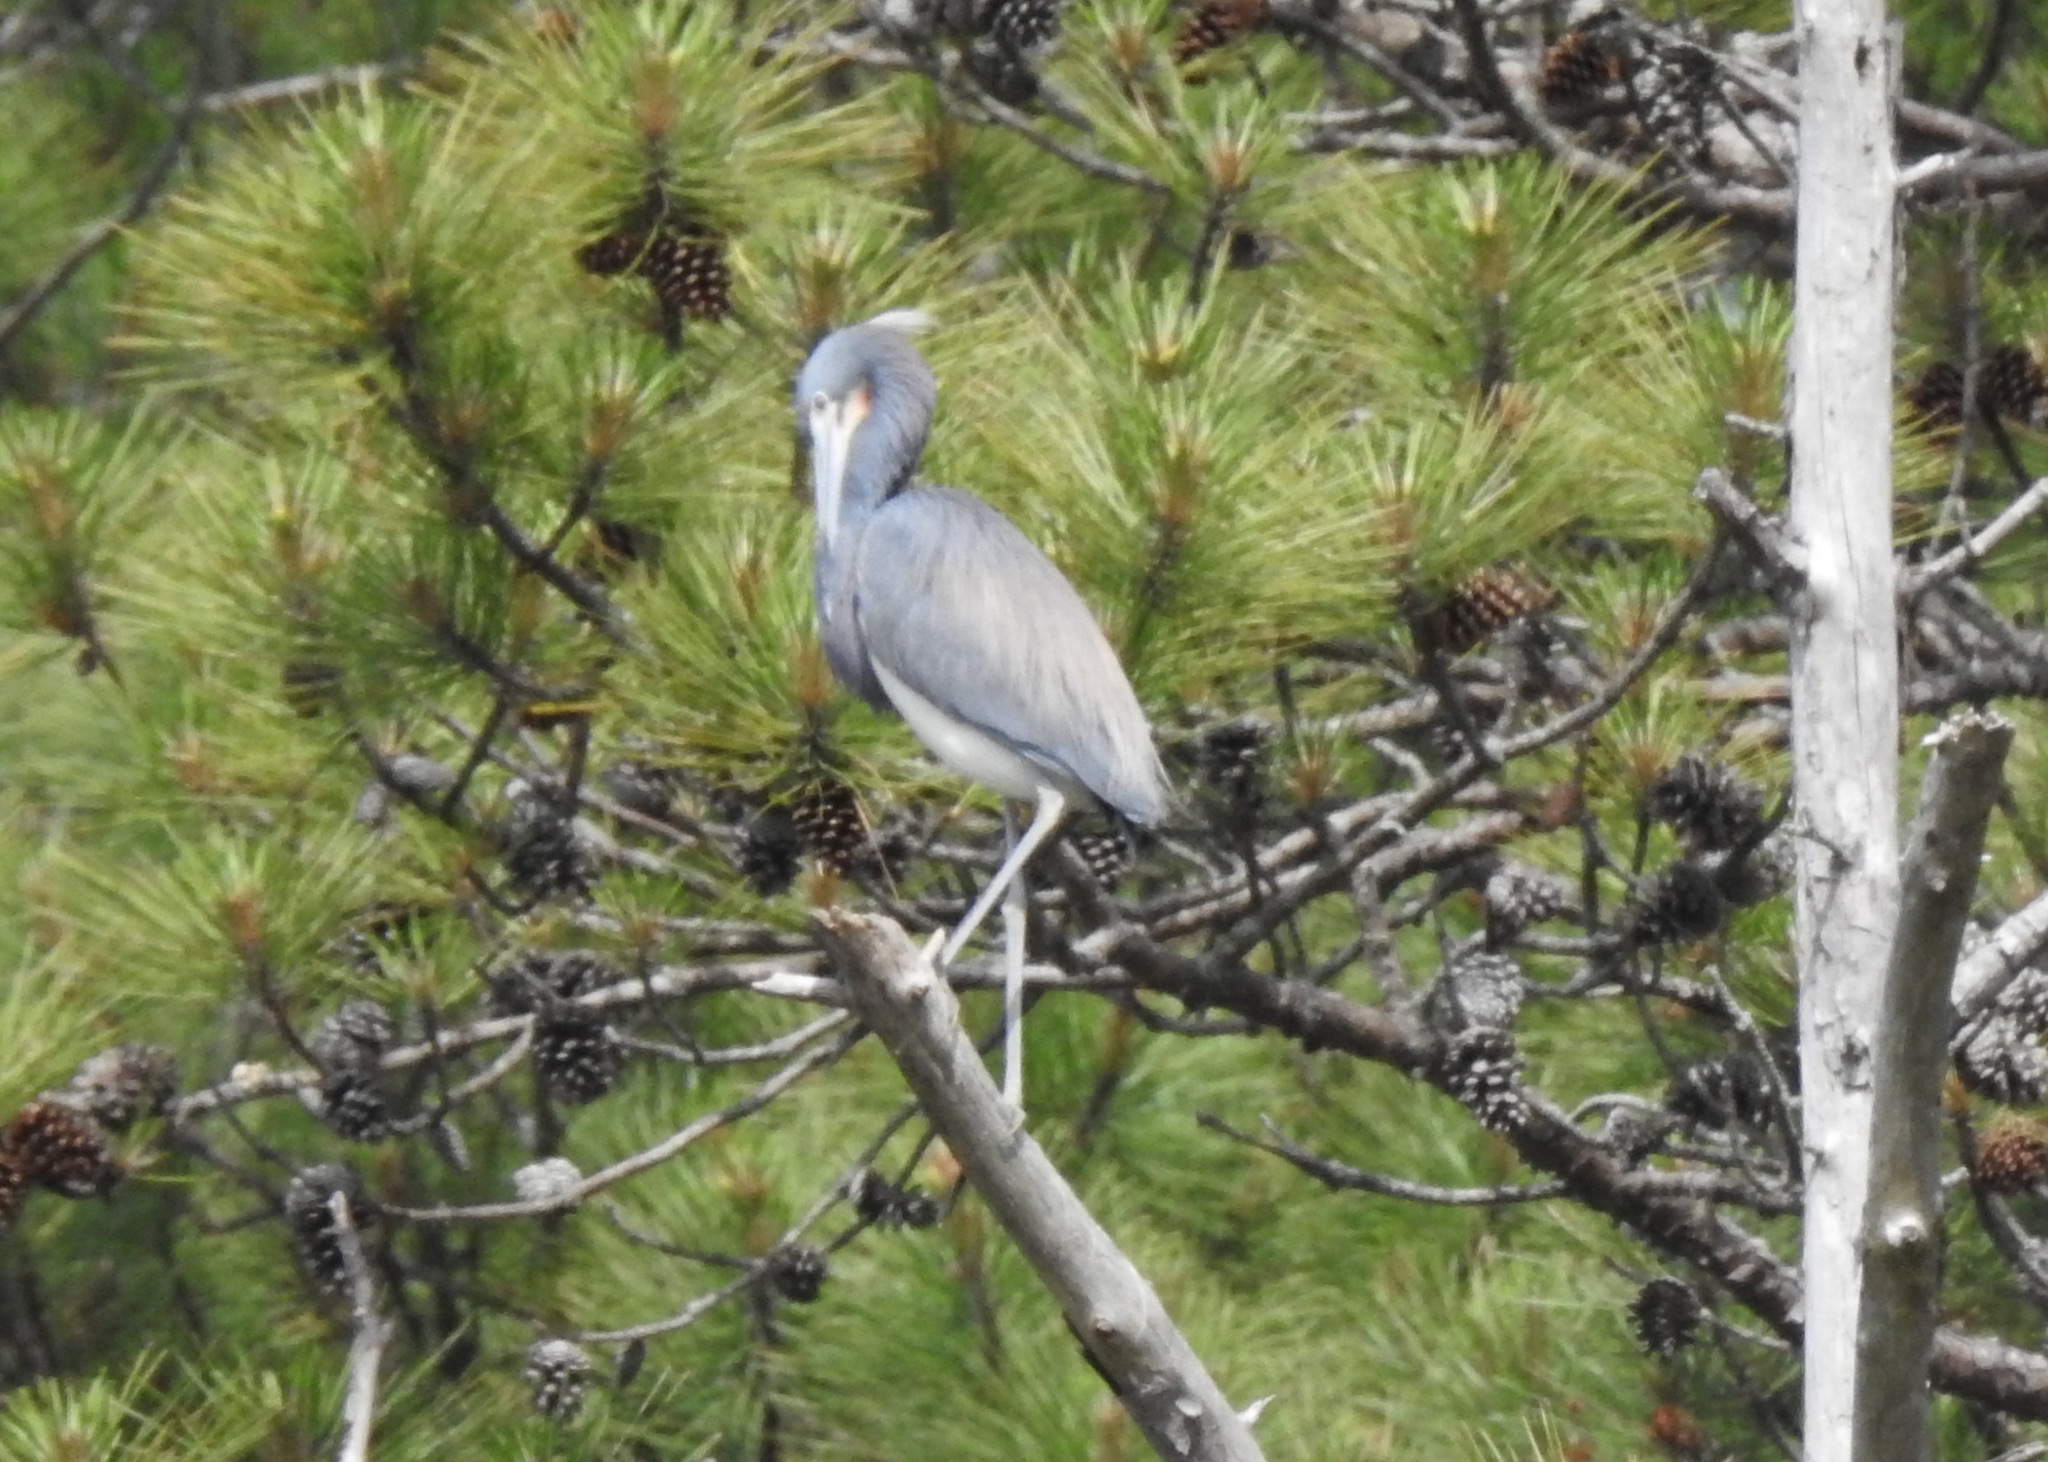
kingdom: Animalia
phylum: Chordata
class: Aves
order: Pelecaniformes
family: Ardeidae
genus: Egretta
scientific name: Egretta tricolor
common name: Tricolored heron
